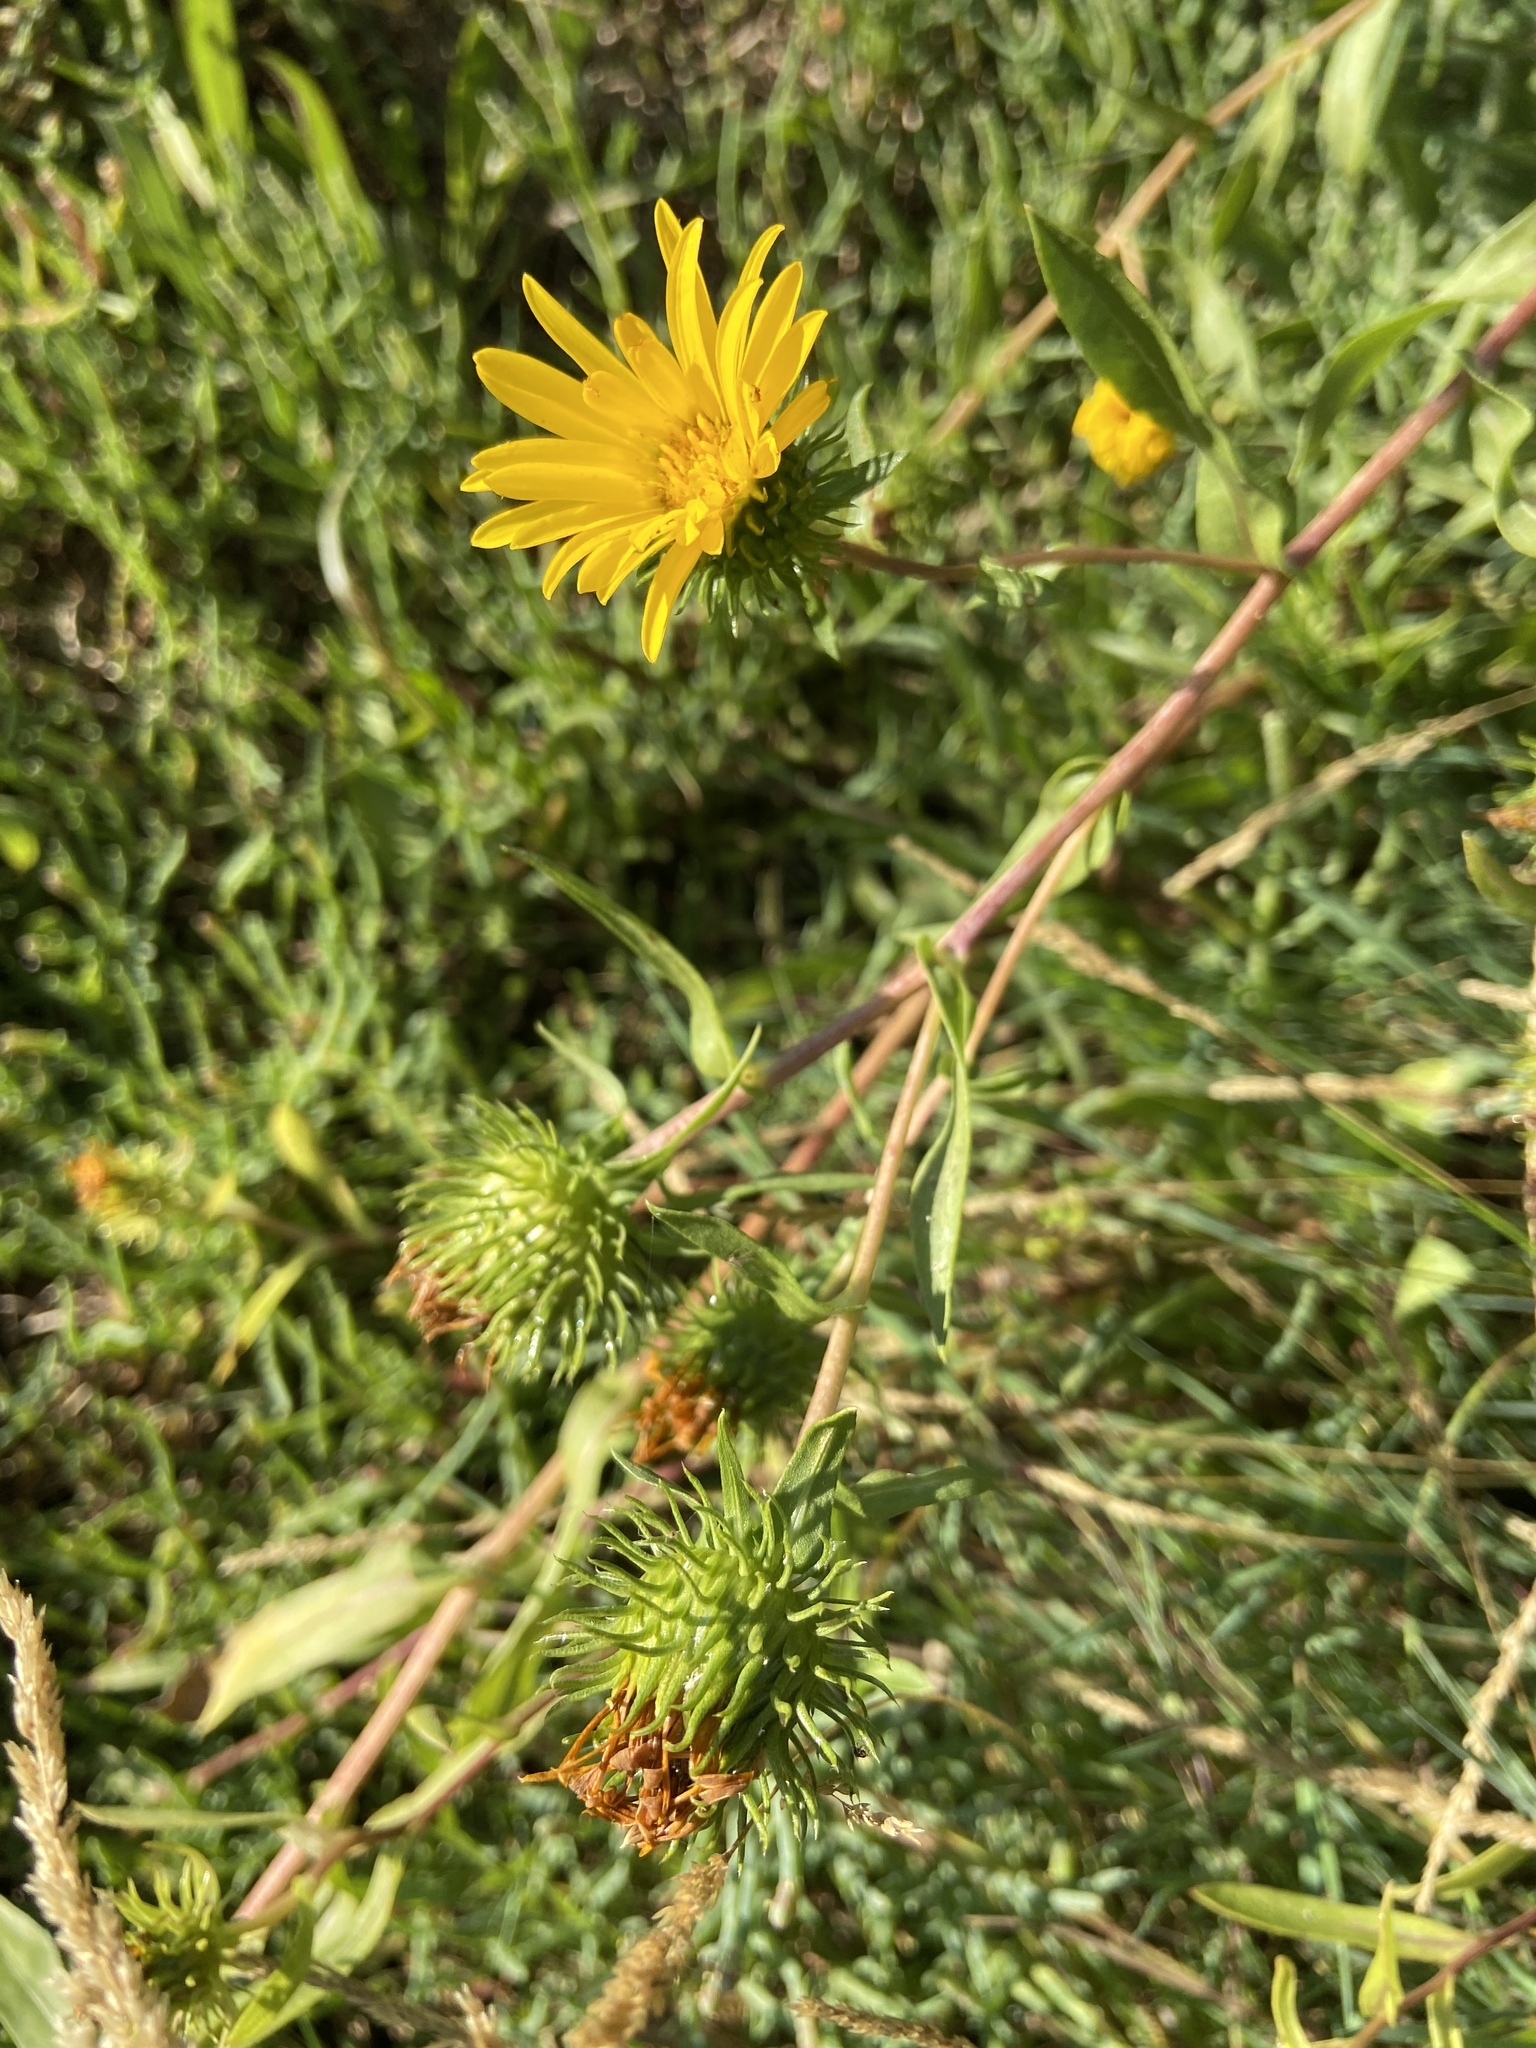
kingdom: Plantae
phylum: Tracheophyta
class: Magnoliopsida
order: Asterales
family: Asteraceae
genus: Grindelia
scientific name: Grindelia integrifolia
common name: Puget sound gumweed
